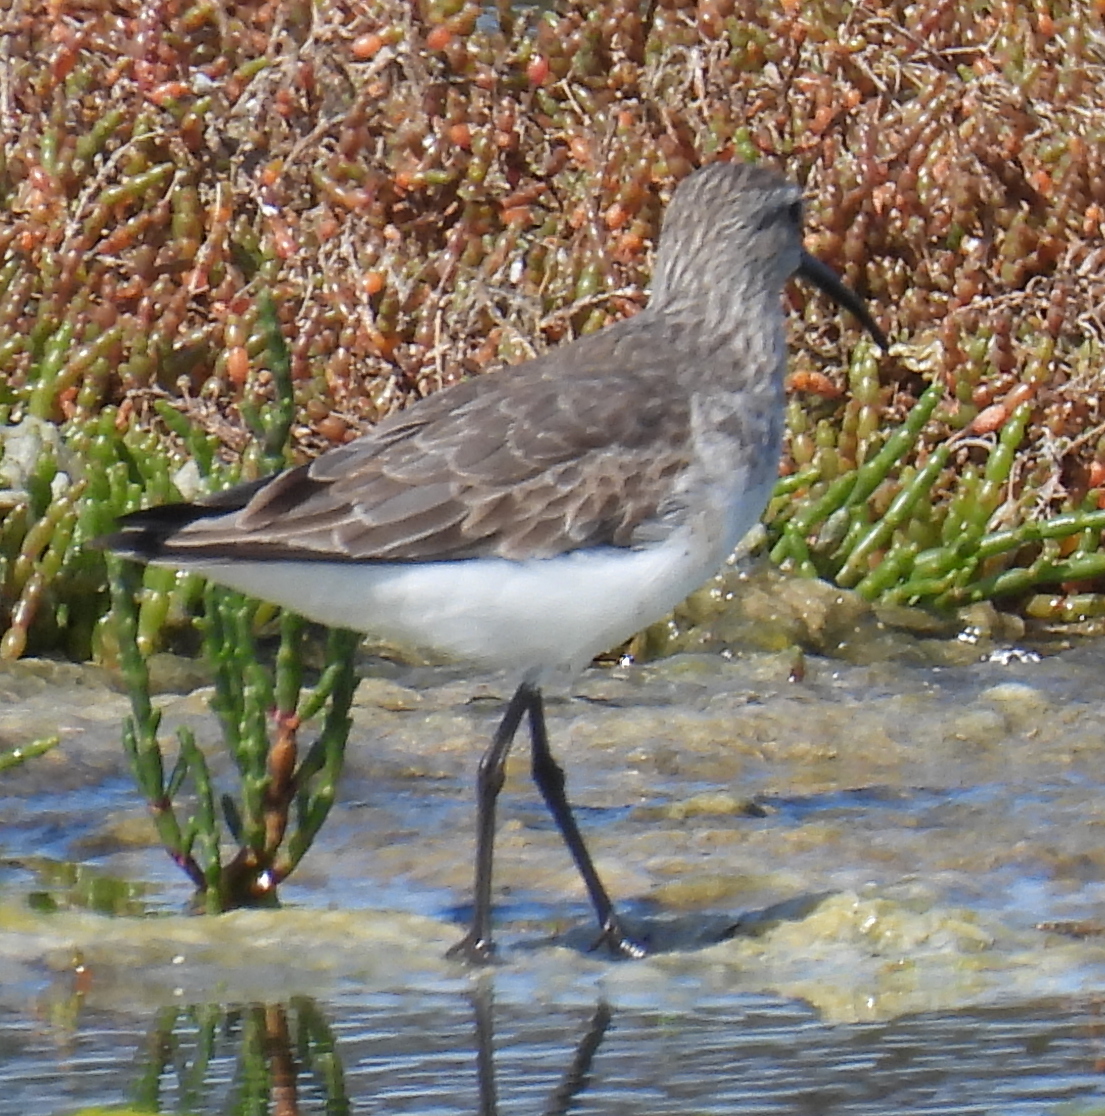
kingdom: Animalia
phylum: Chordata
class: Aves
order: Charadriiformes
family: Scolopacidae
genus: Calidris
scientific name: Calidris ferruginea
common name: Curlew sandpiper
